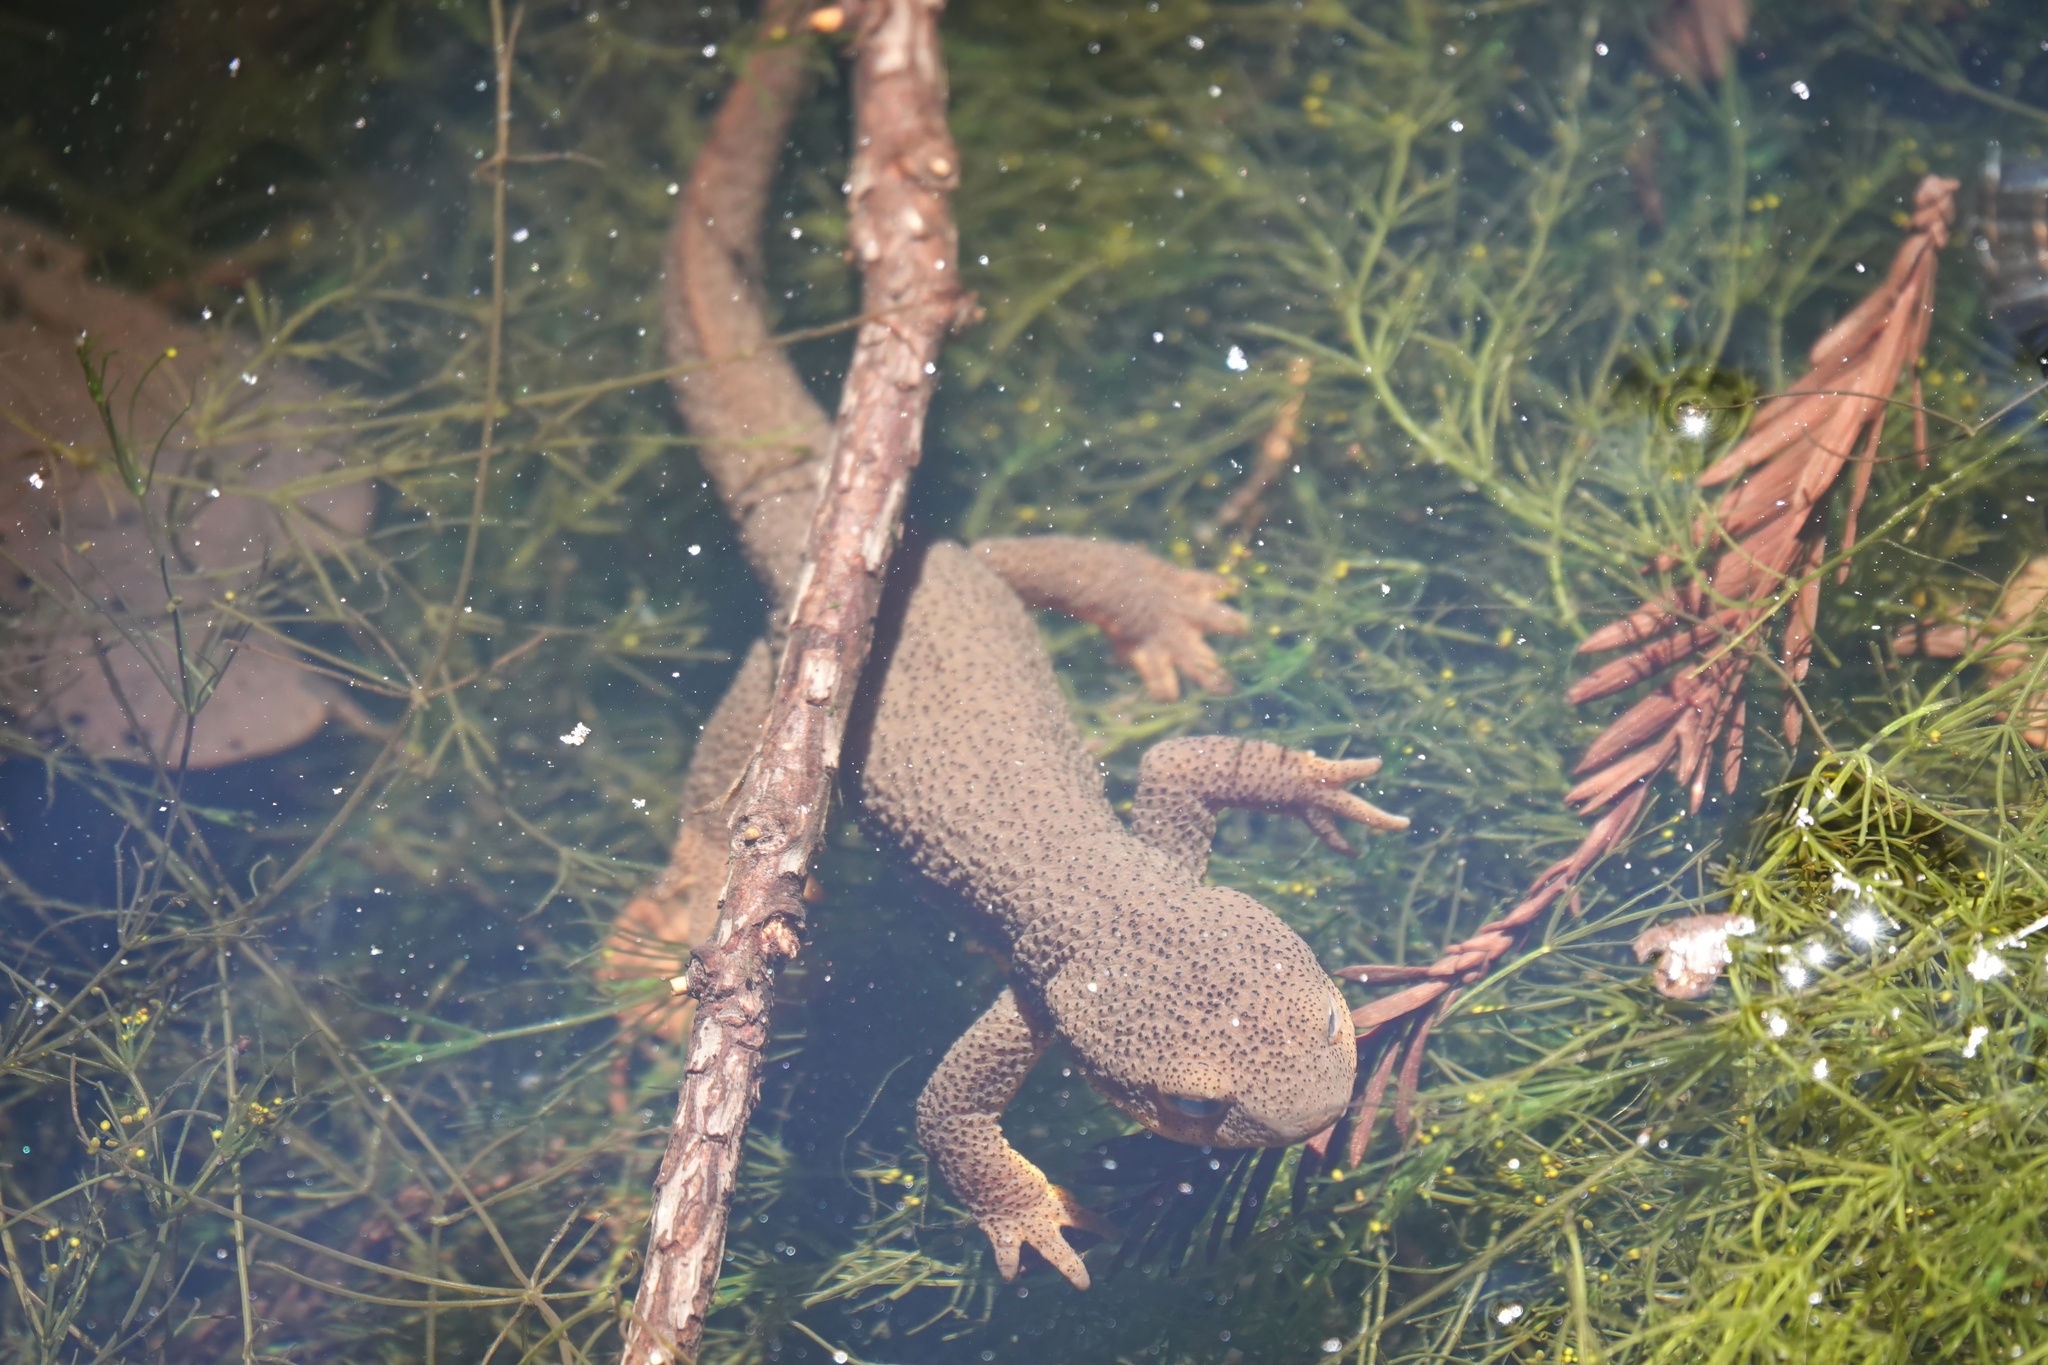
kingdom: Animalia
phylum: Chordata
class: Amphibia
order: Caudata
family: Salamandridae
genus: Taricha
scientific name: Taricha granulosa
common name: Roughskin newt
